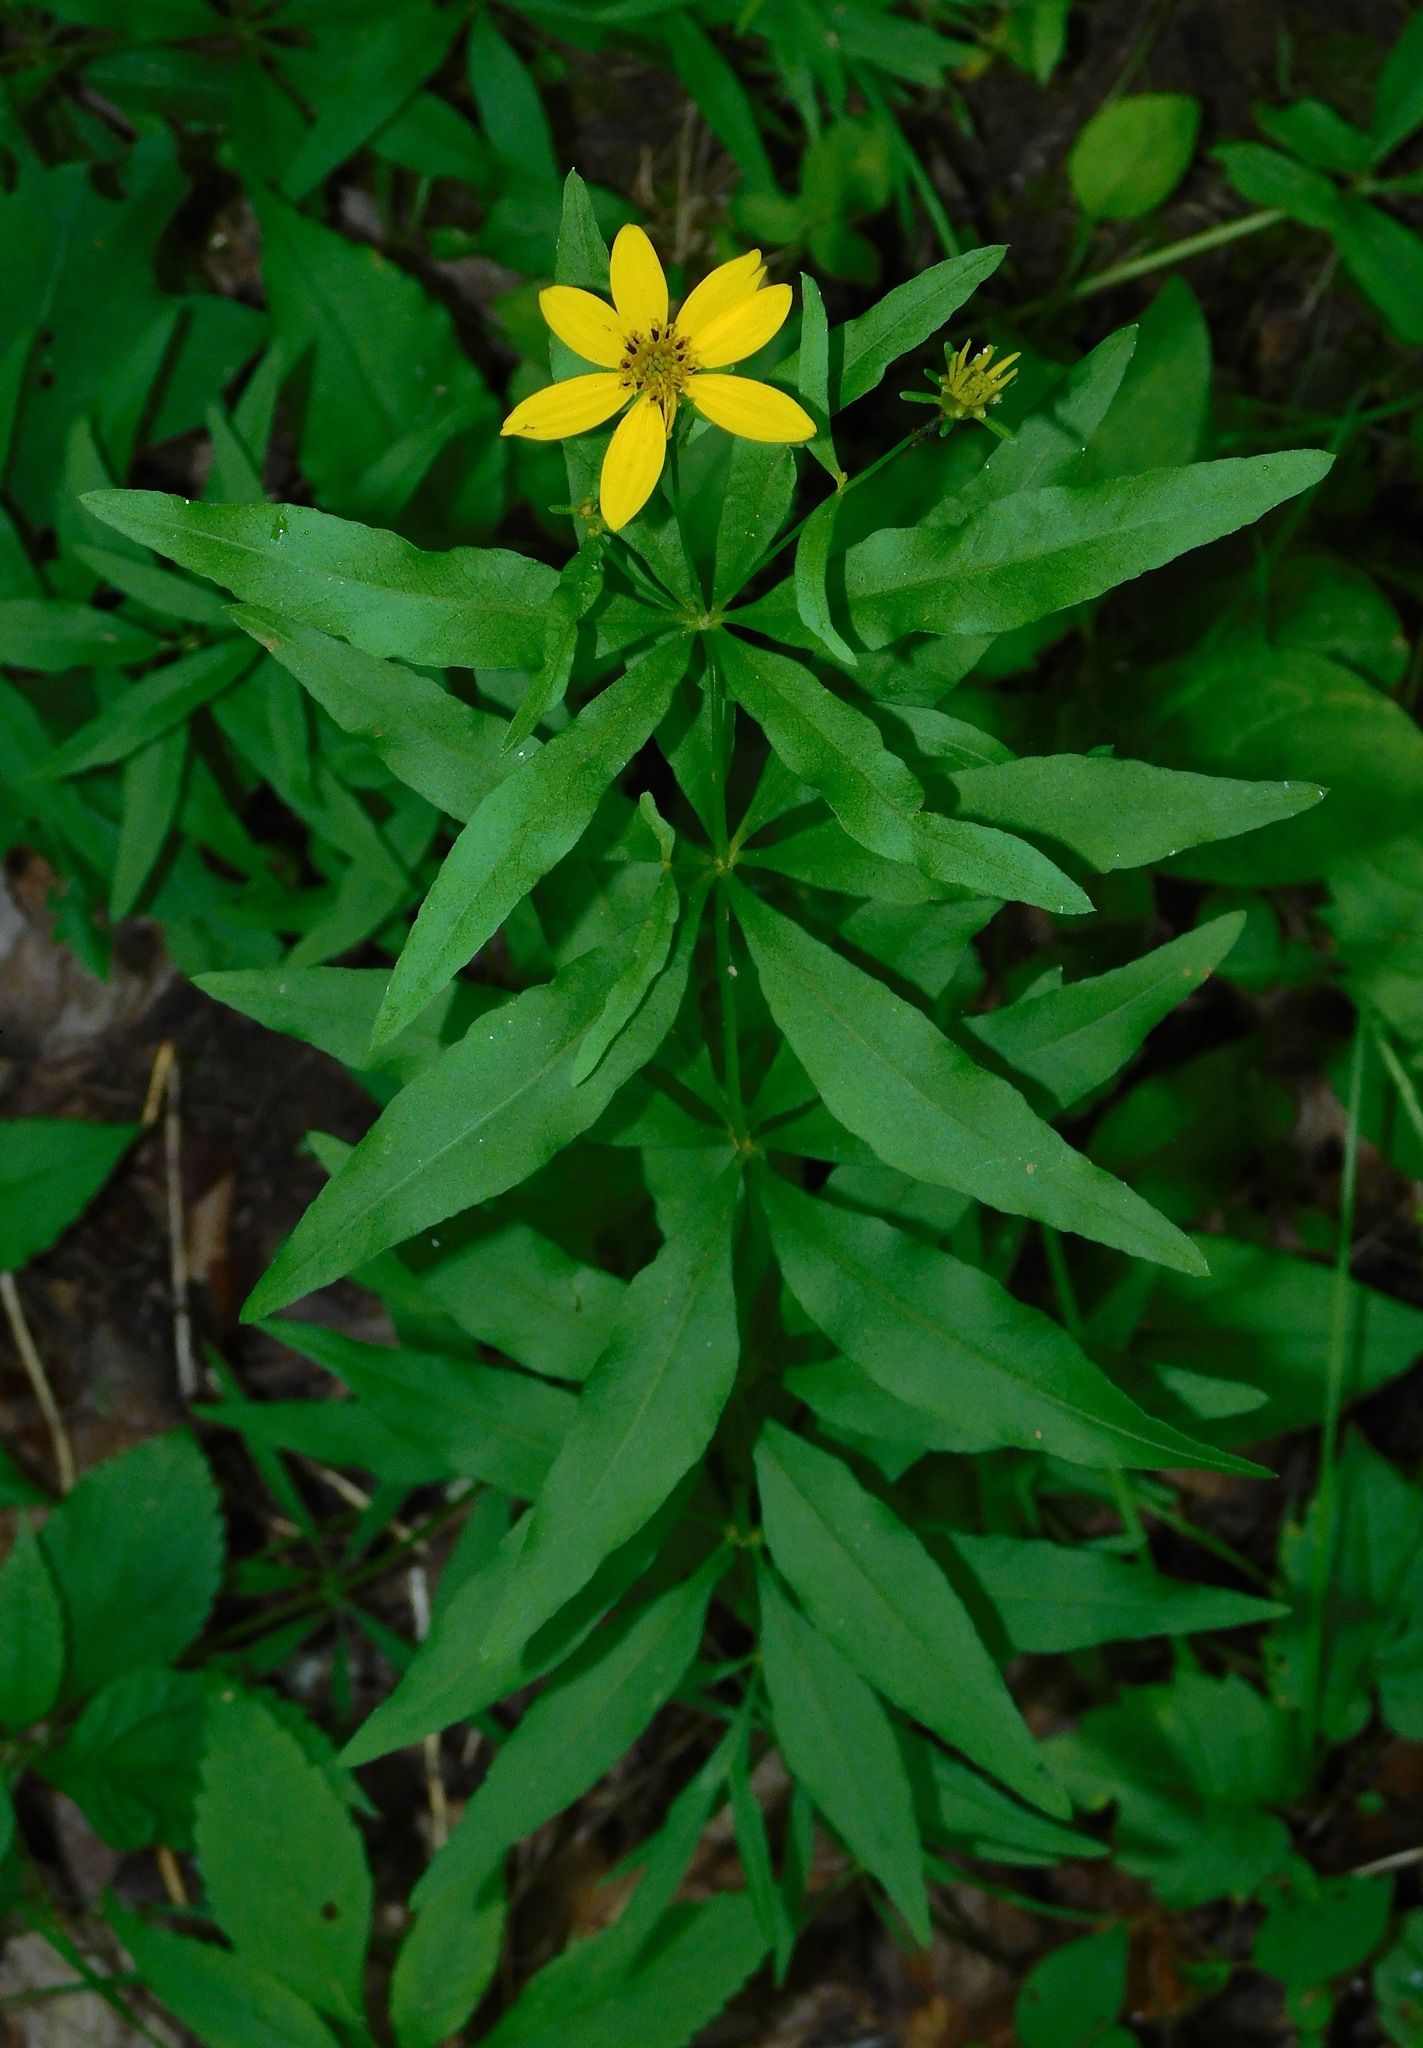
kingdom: Plantae
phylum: Tracheophyta
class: Magnoliopsida
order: Asterales
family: Asteraceae
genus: Coreopsis
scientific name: Coreopsis major
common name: Forest tickseed
